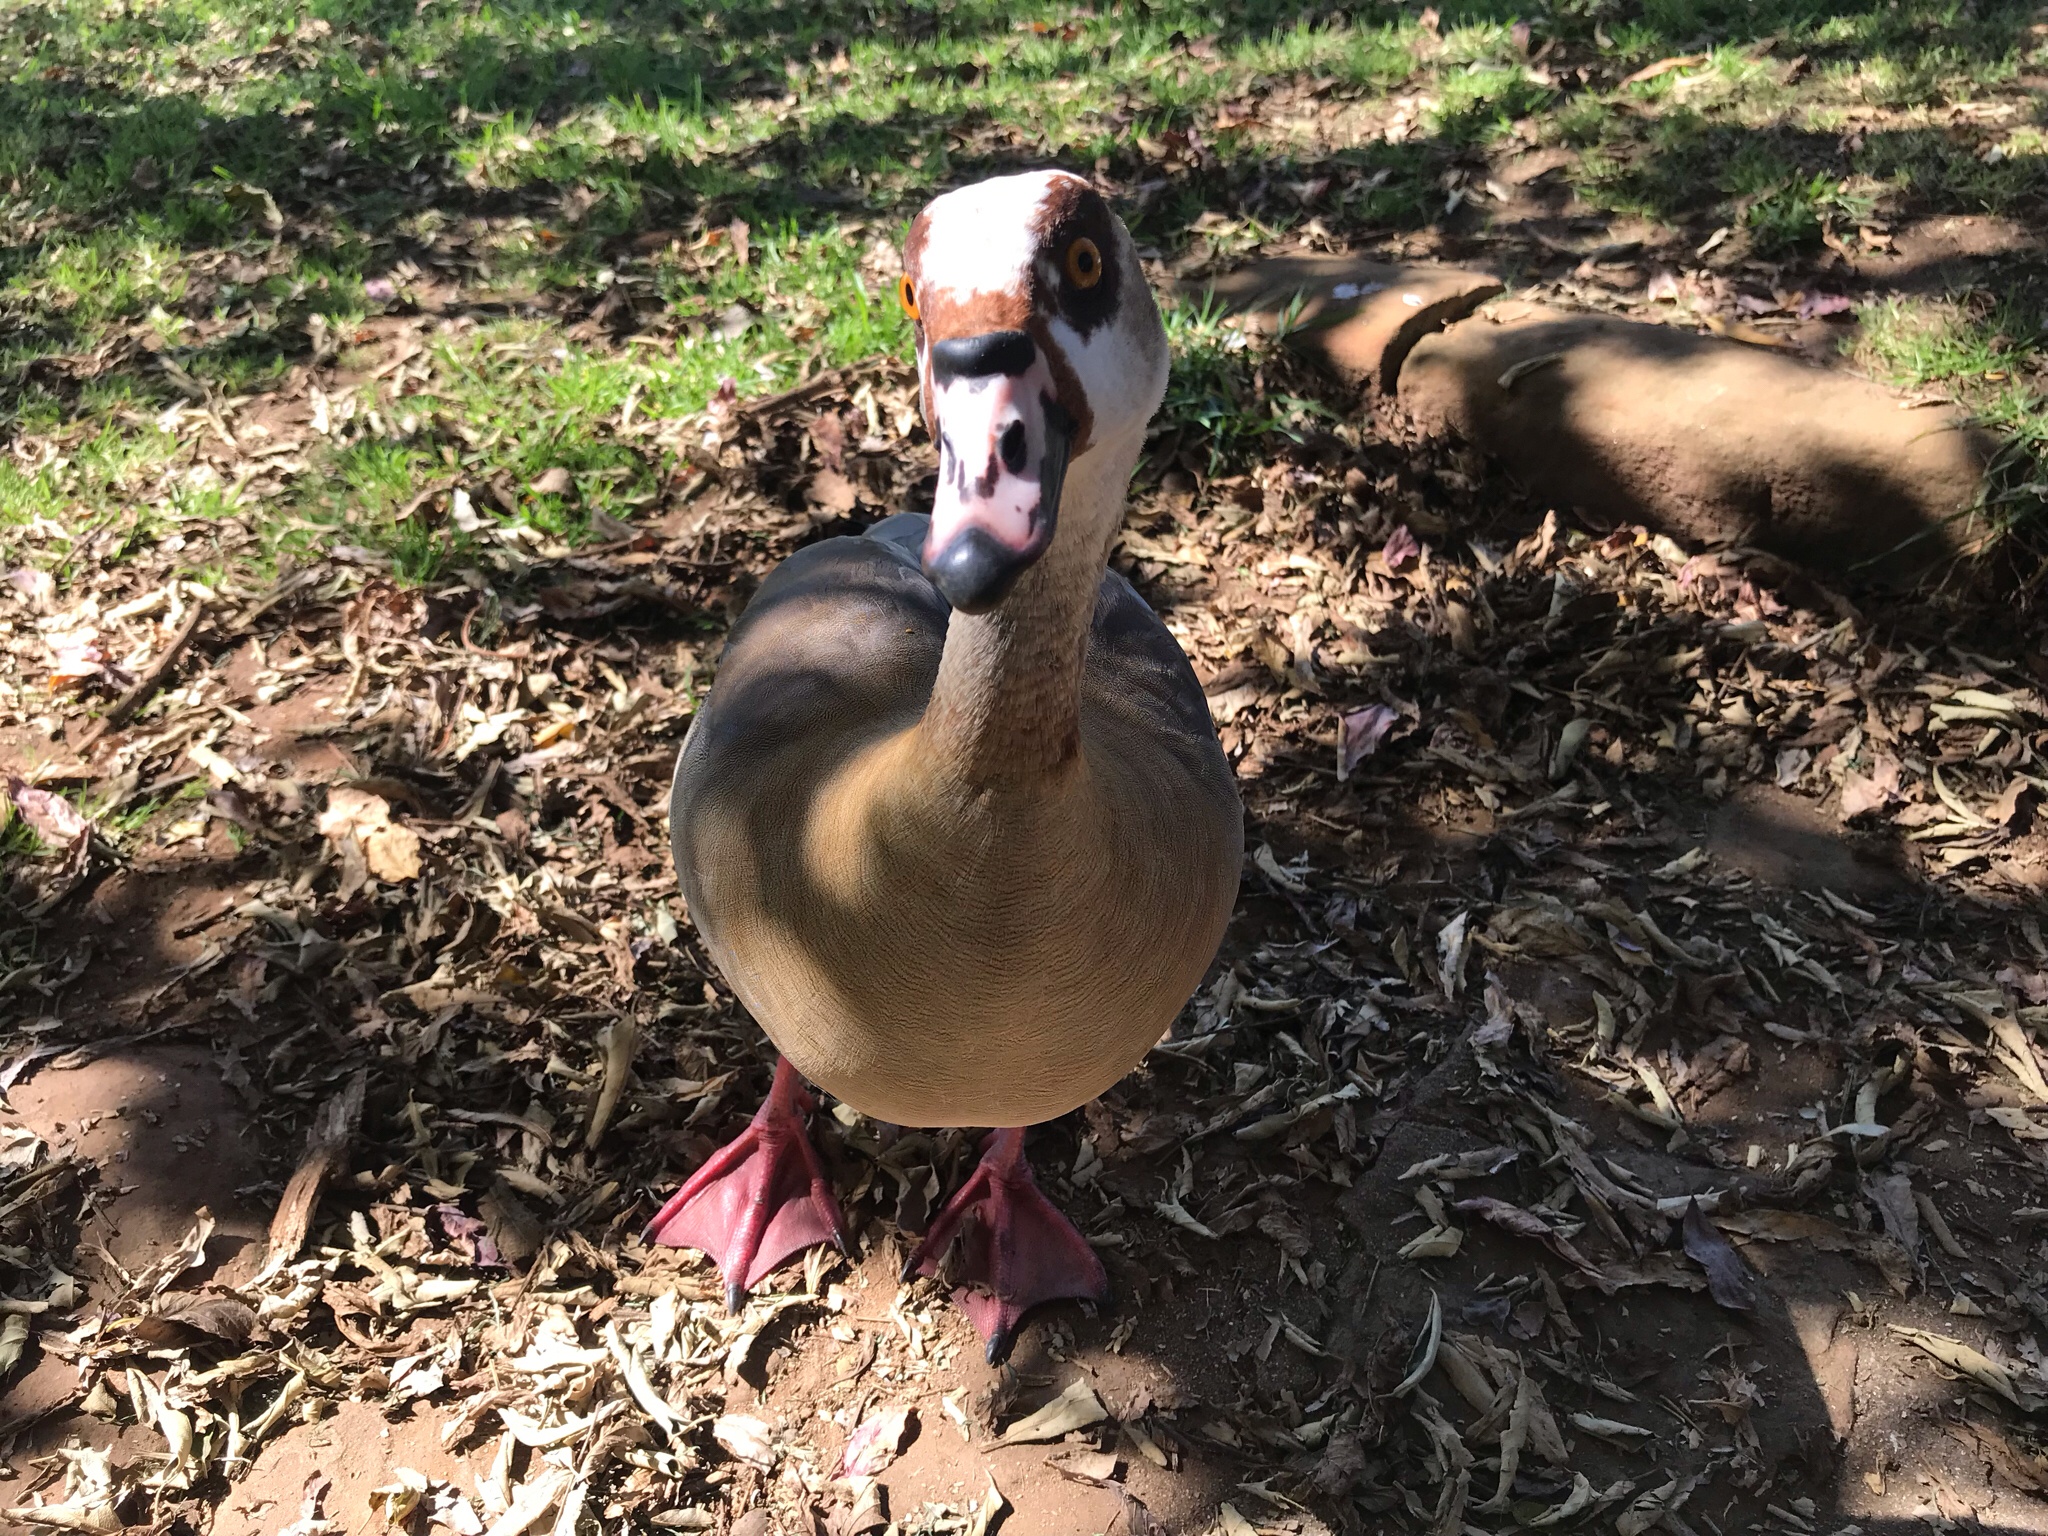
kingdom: Animalia
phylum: Chordata
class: Aves
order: Anseriformes
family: Anatidae
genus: Alopochen
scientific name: Alopochen aegyptiaca
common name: Egyptian goose
